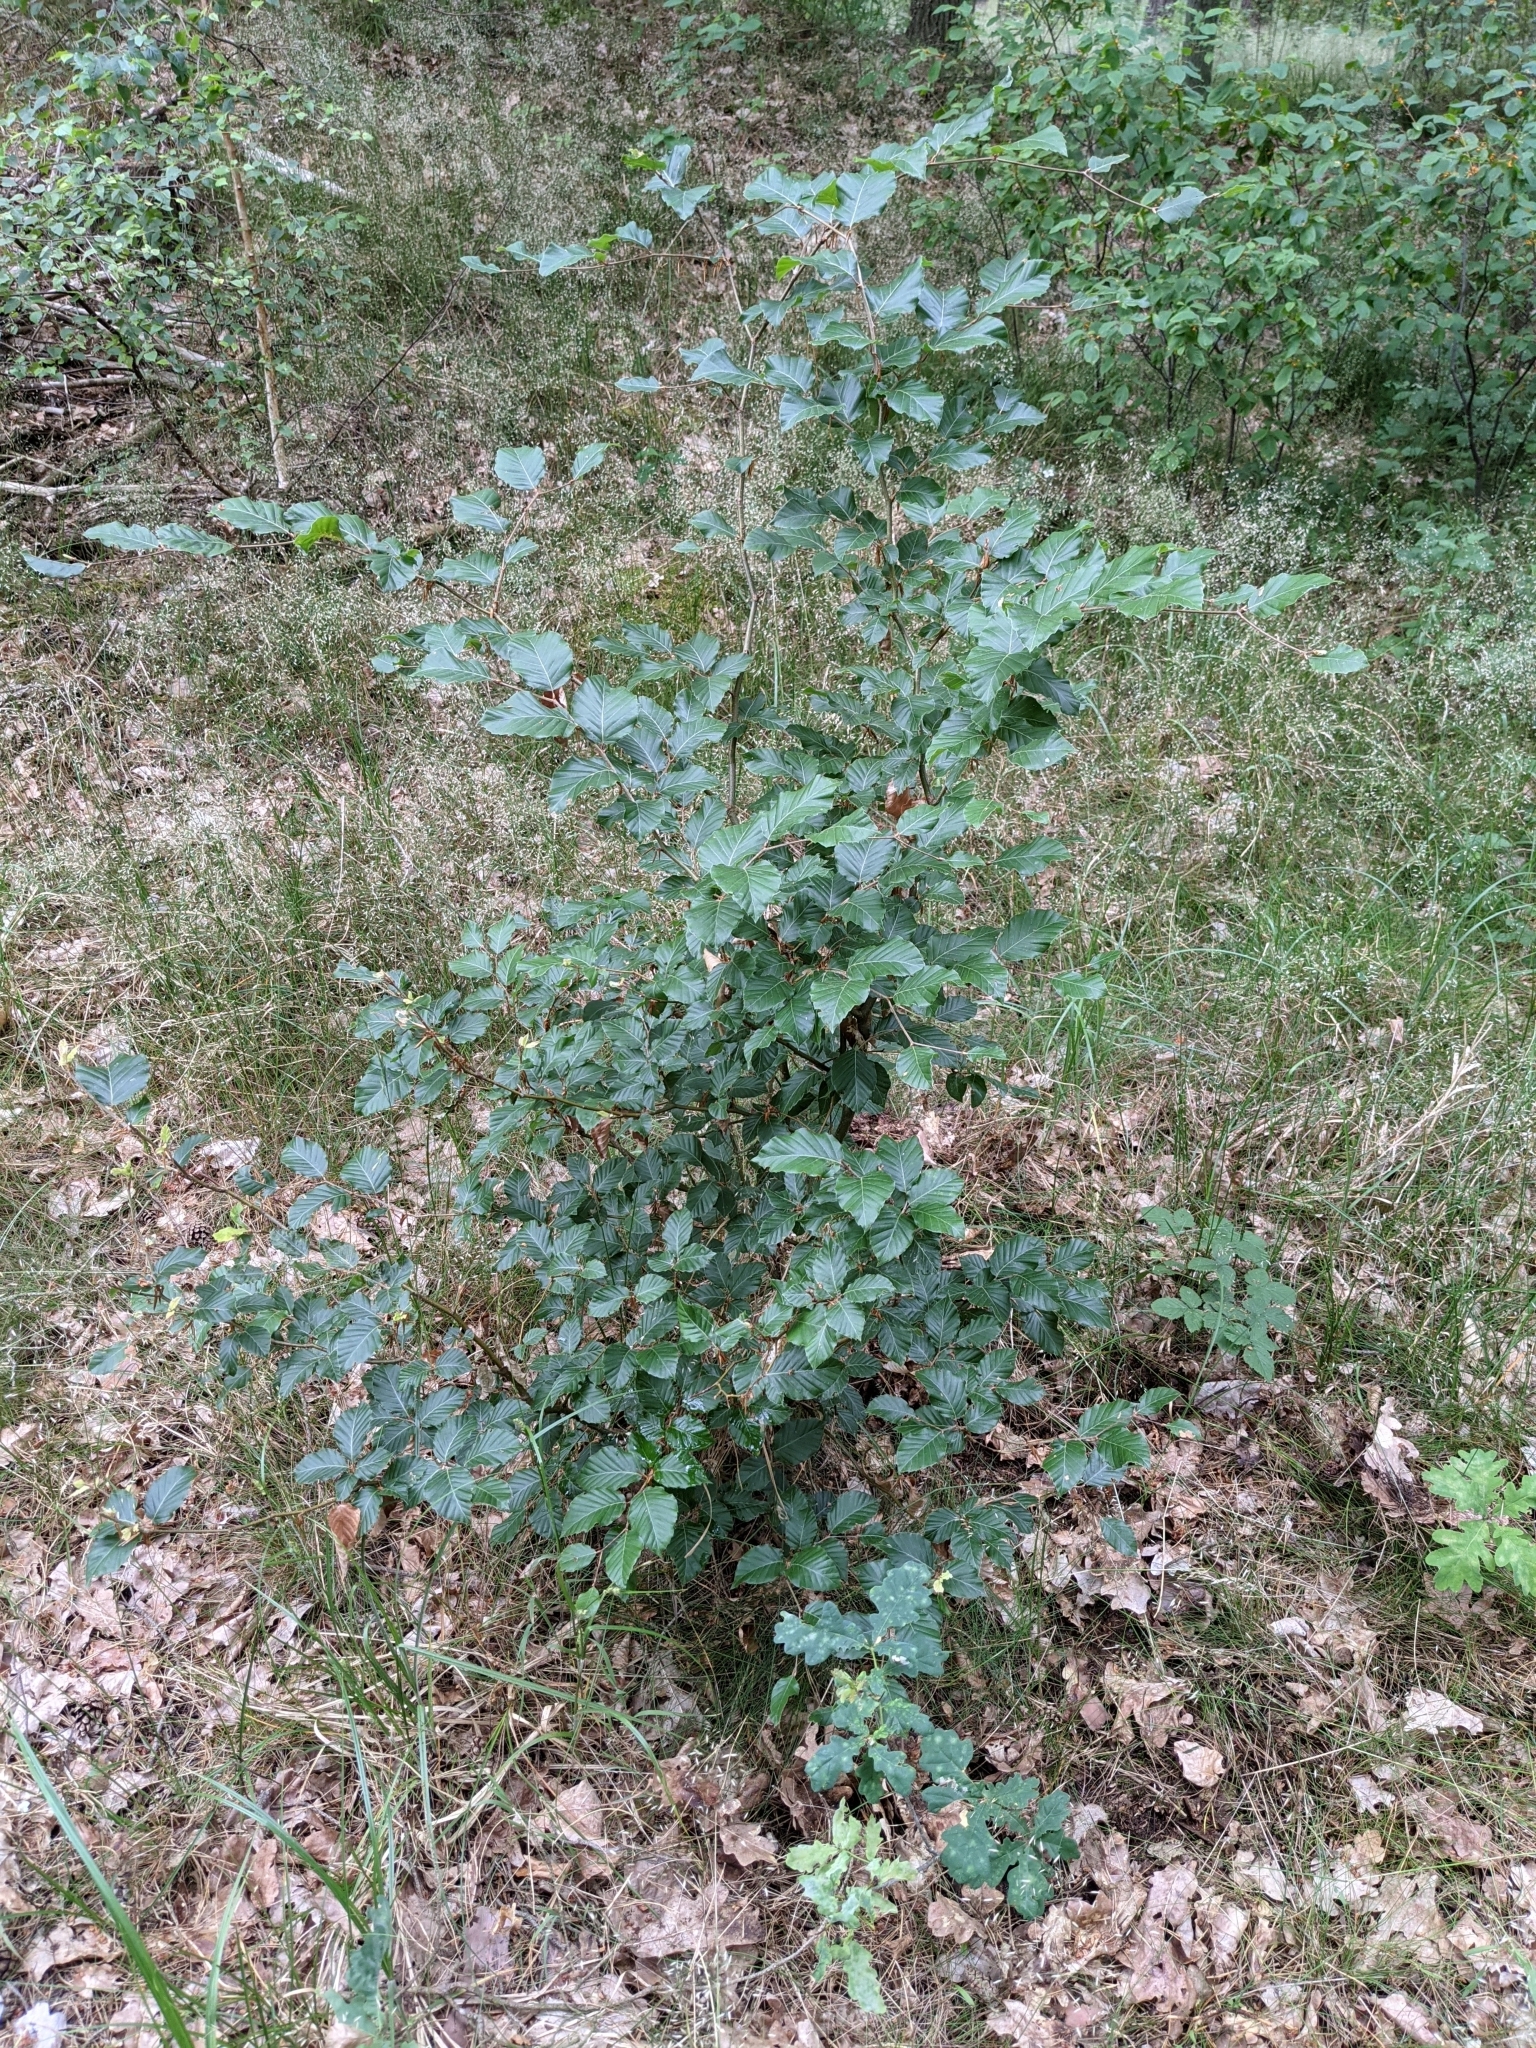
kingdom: Plantae
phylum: Tracheophyta
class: Magnoliopsida
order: Fagales
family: Fagaceae
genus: Fagus
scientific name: Fagus sylvatica
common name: Beech
